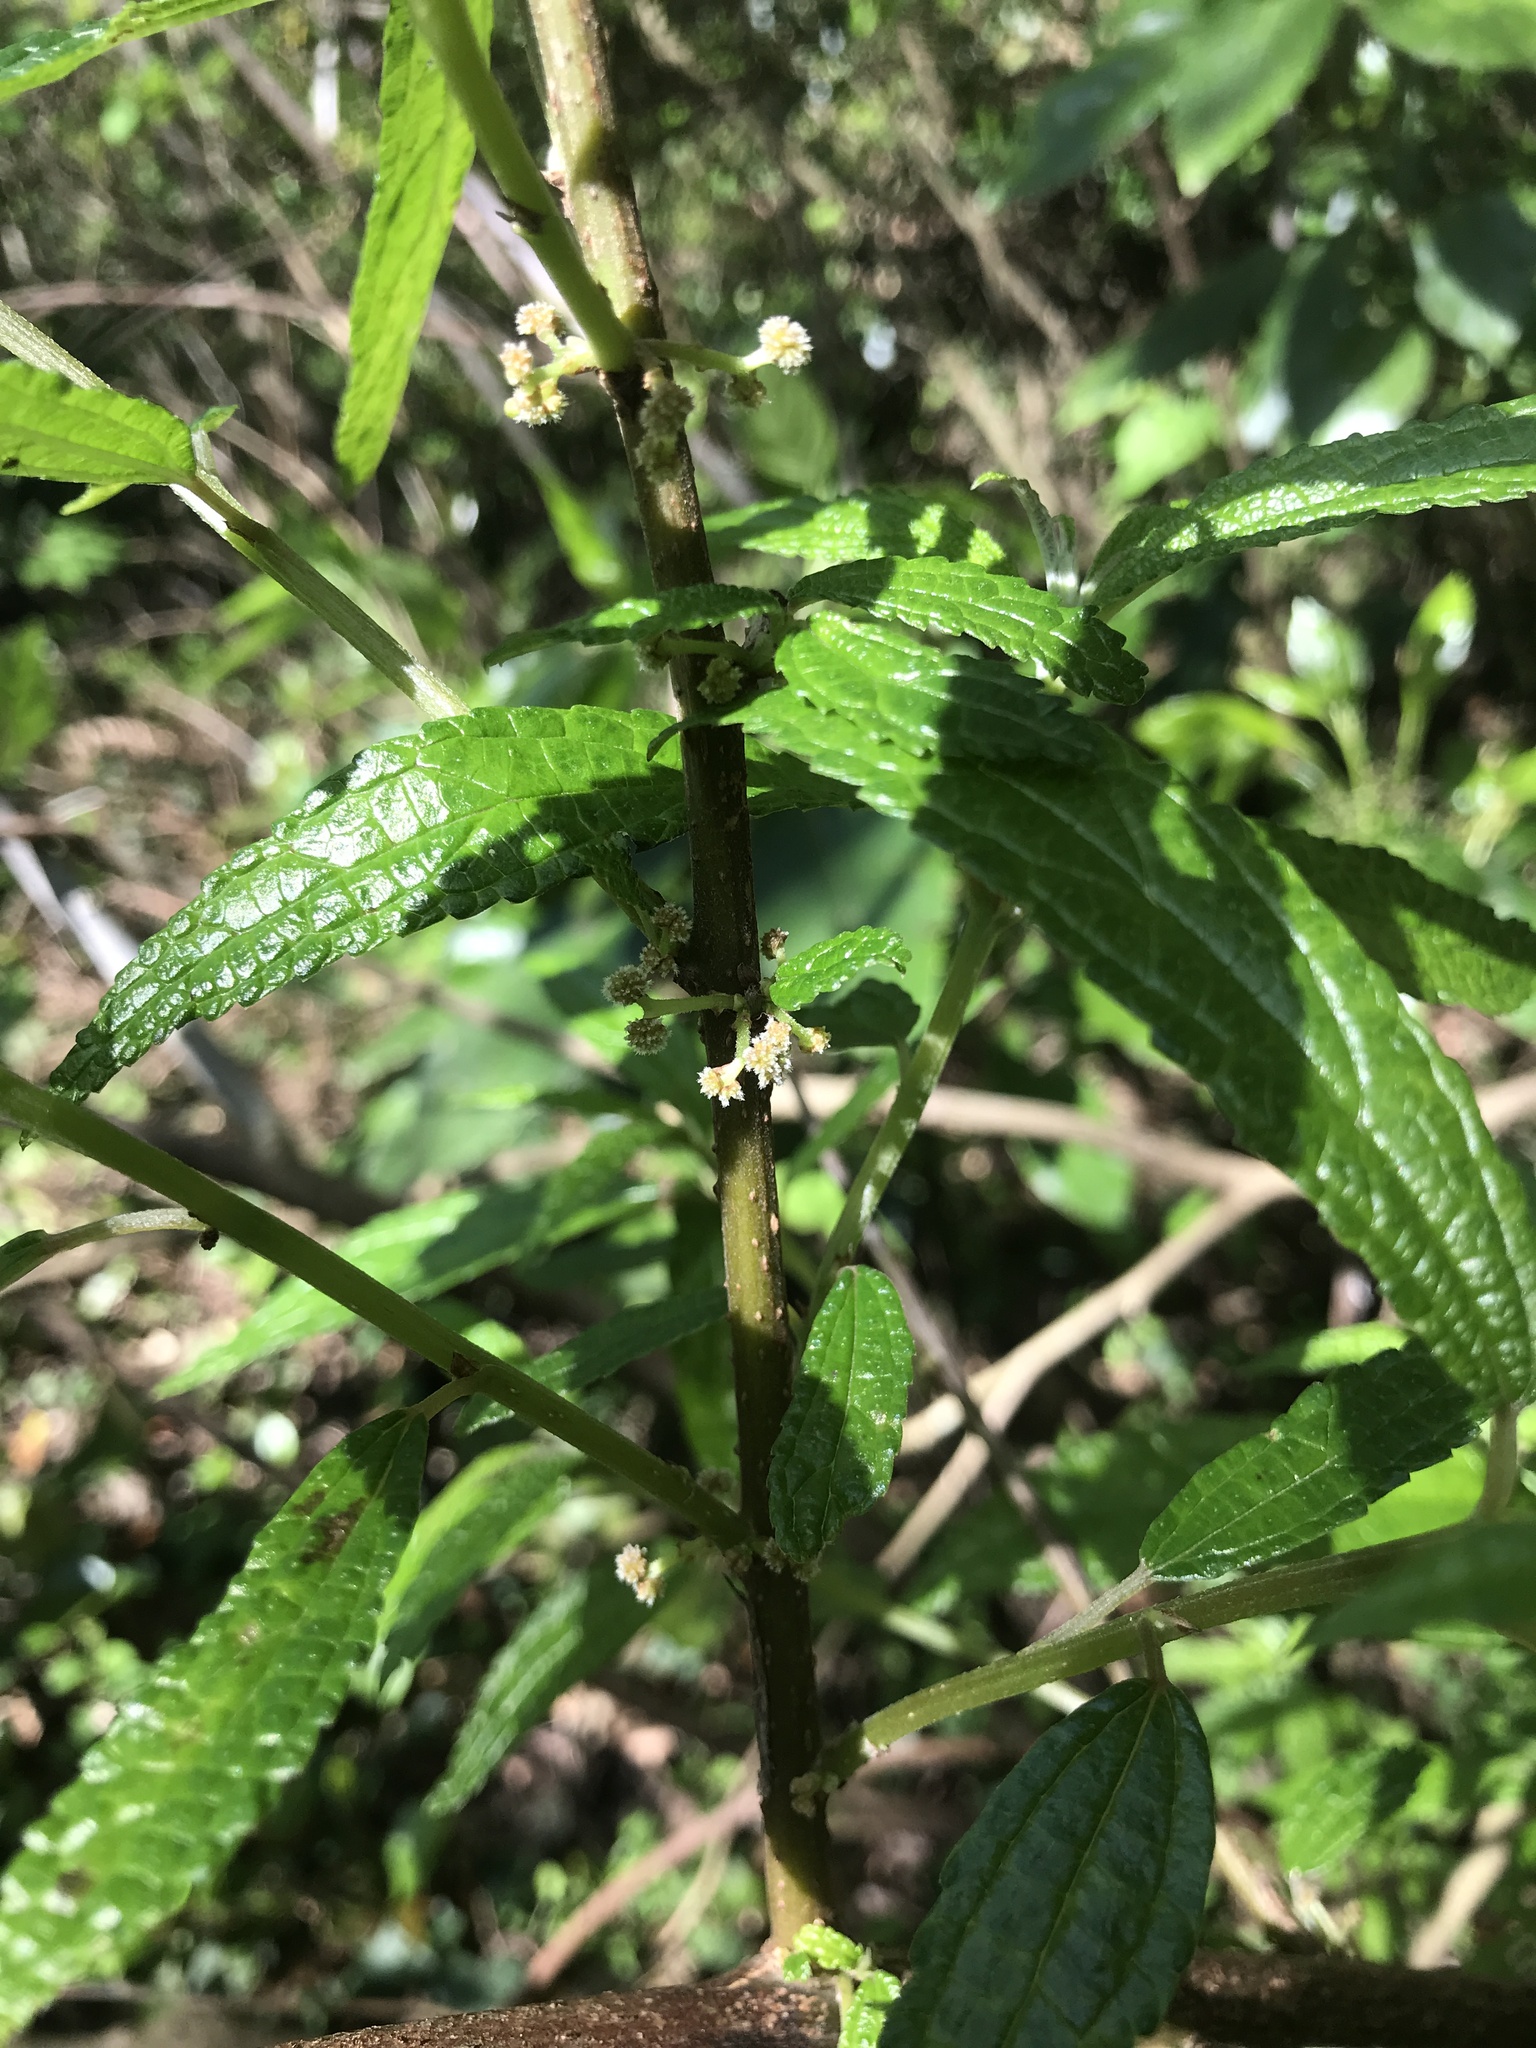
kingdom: Plantae
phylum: Tracheophyta
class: Magnoliopsida
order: Rosales
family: Urticaceae
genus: Debregeasia
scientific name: Debregeasia orientalis
